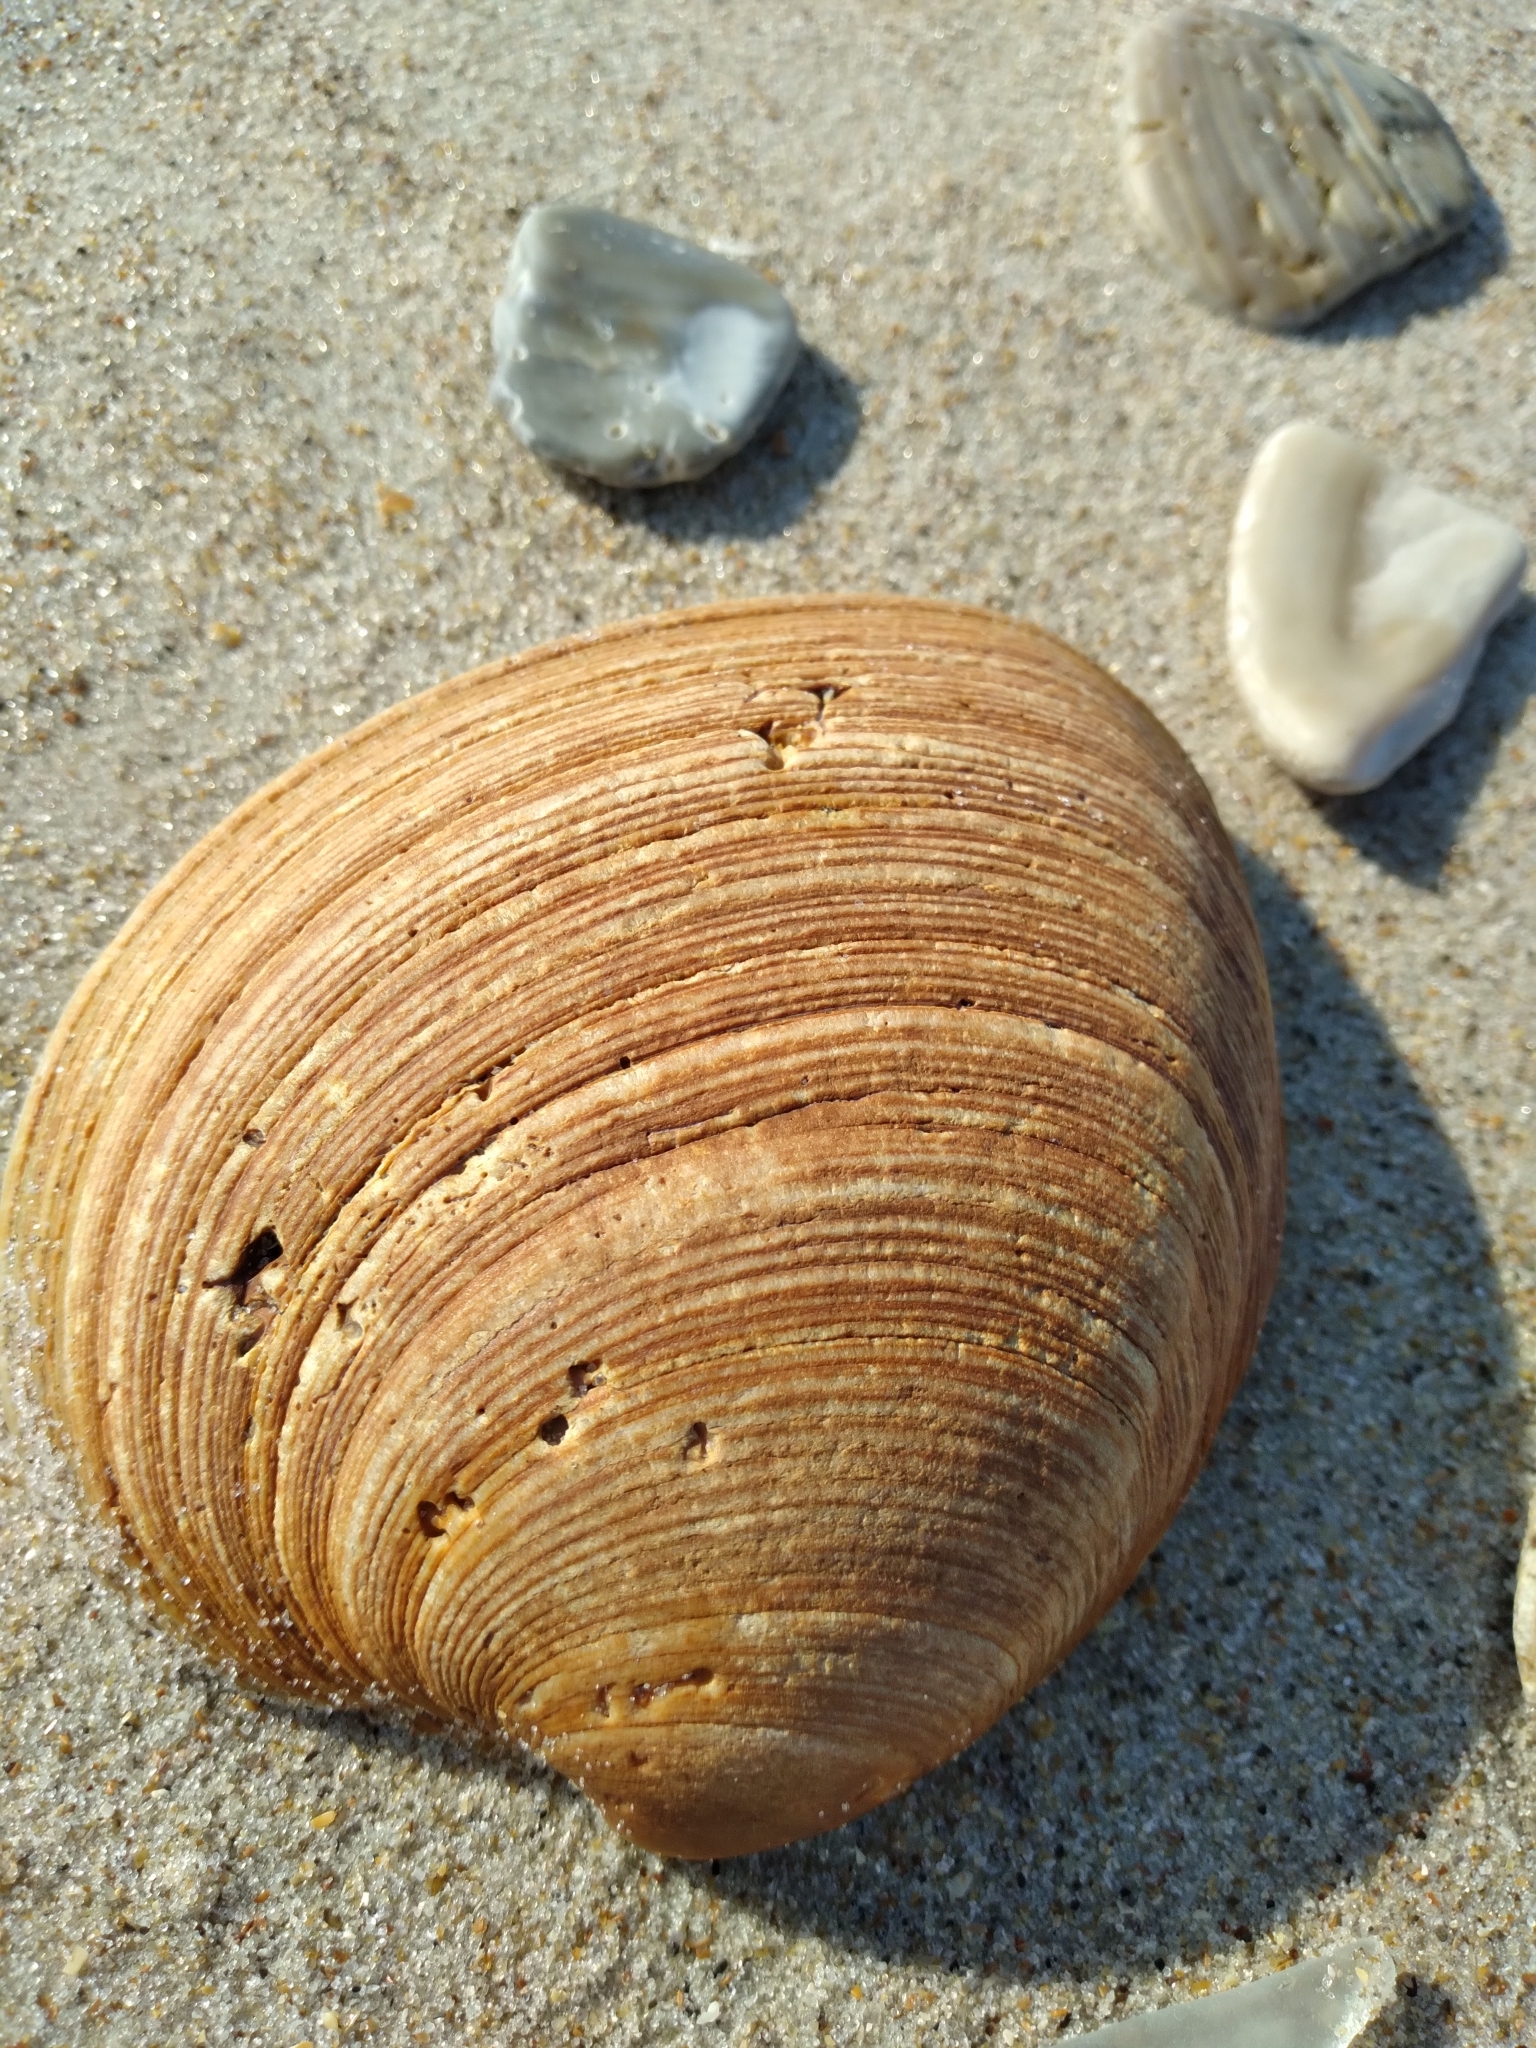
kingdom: Animalia
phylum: Mollusca
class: Bivalvia
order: Venerida
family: Veneridae
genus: Mercenaria
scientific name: Mercenaria campechiensis
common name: Südliche quahog-muschel
